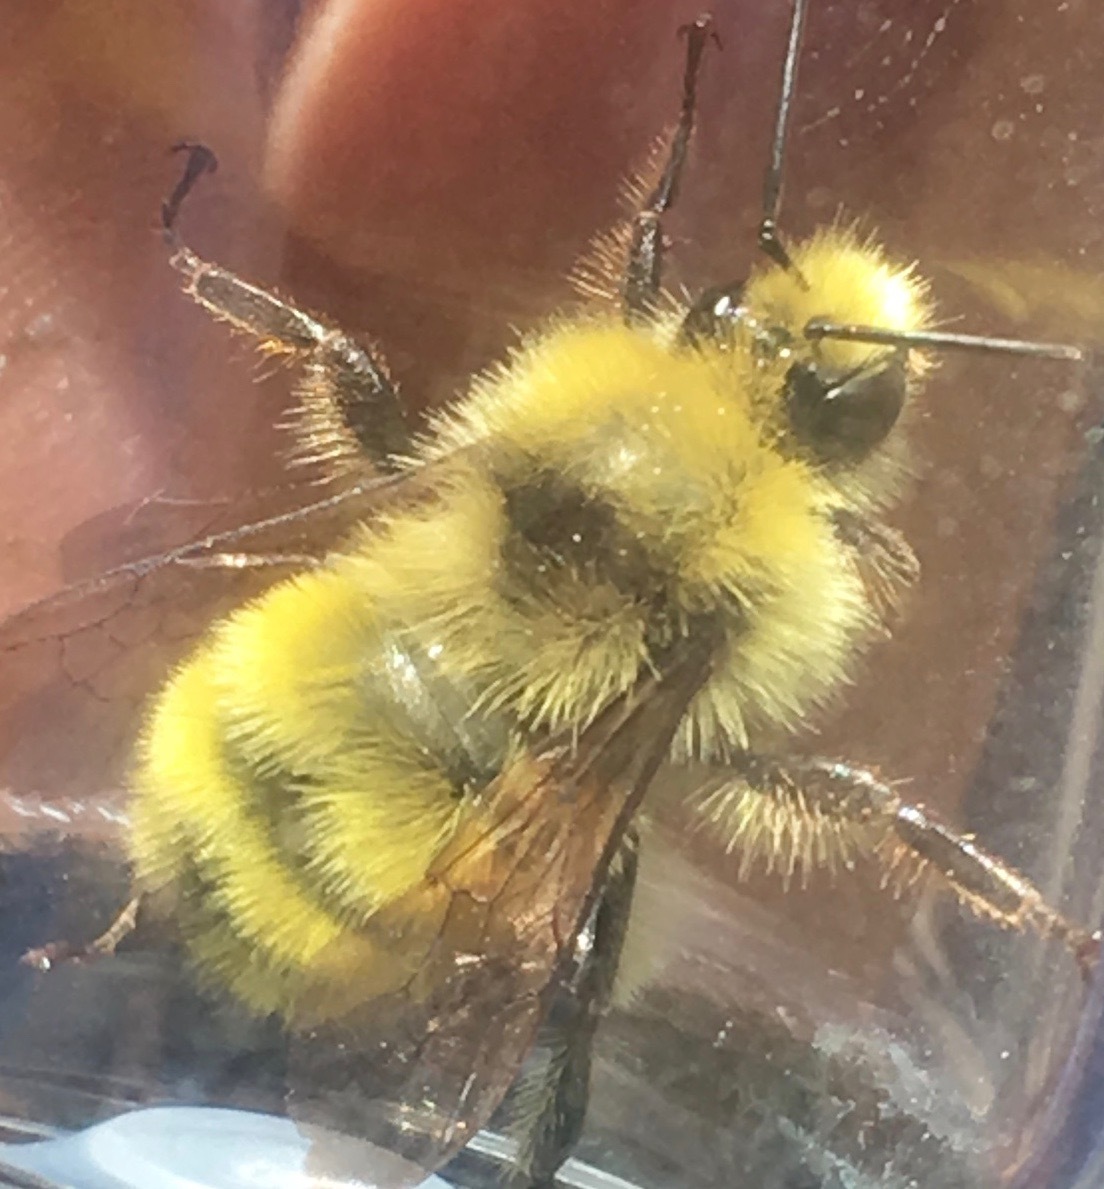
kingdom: Animalia
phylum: Arthropoda
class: Insecta
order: Hymenoptera
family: Apidae
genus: Bombus
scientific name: Bombus vandykei
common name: Van dyke bumble bee
